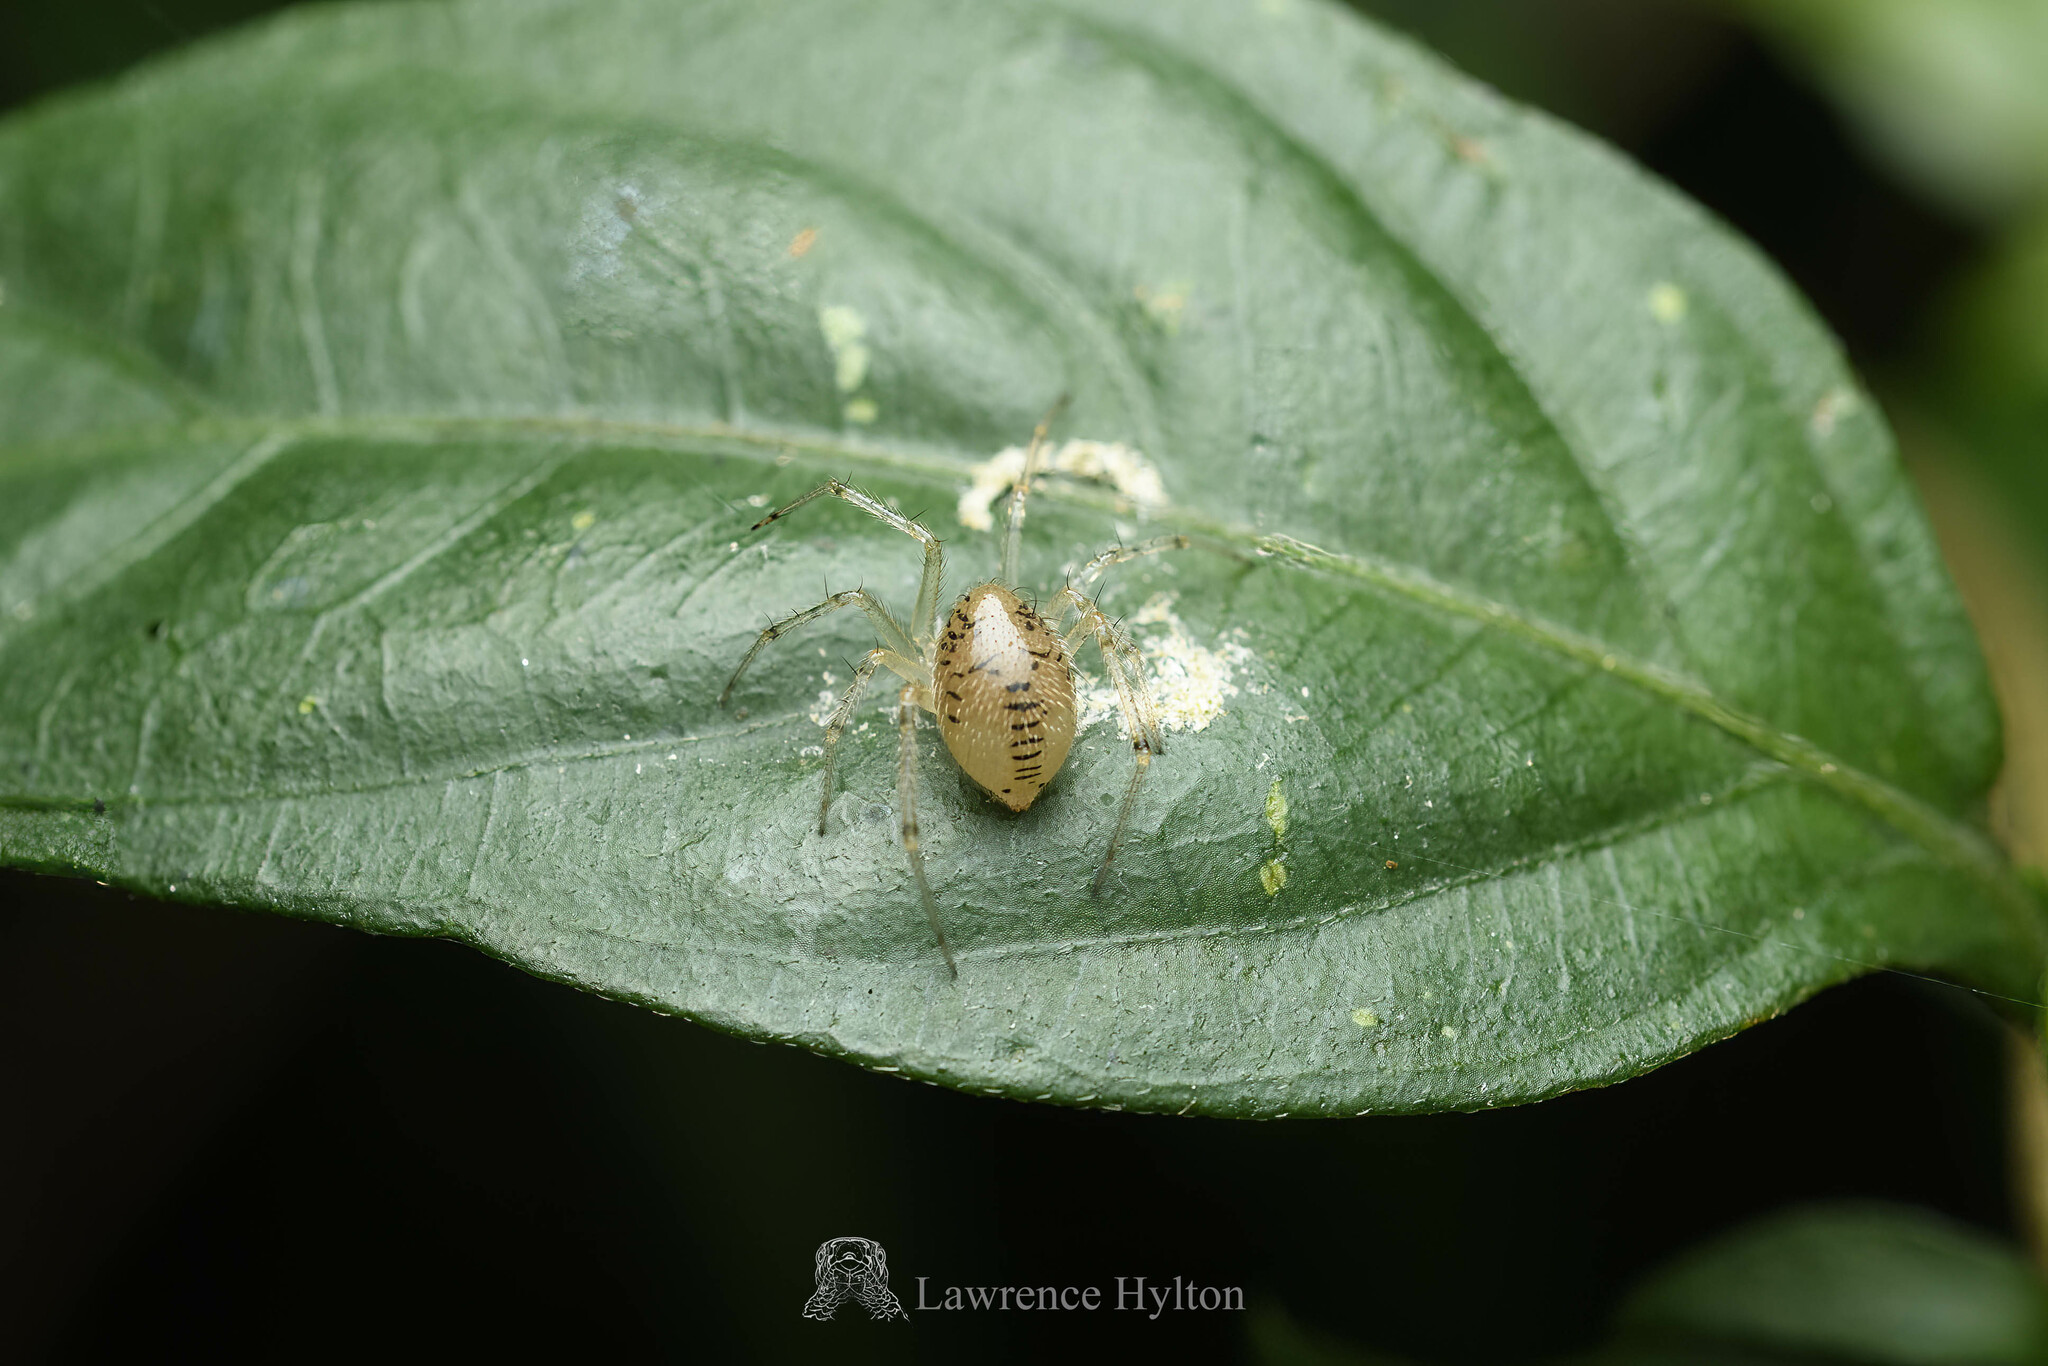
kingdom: Animalia
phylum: Arthropoda
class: Arachnida
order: Araneae
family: Theridiidae
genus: Phycosoma
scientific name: Phycosoma digitula
